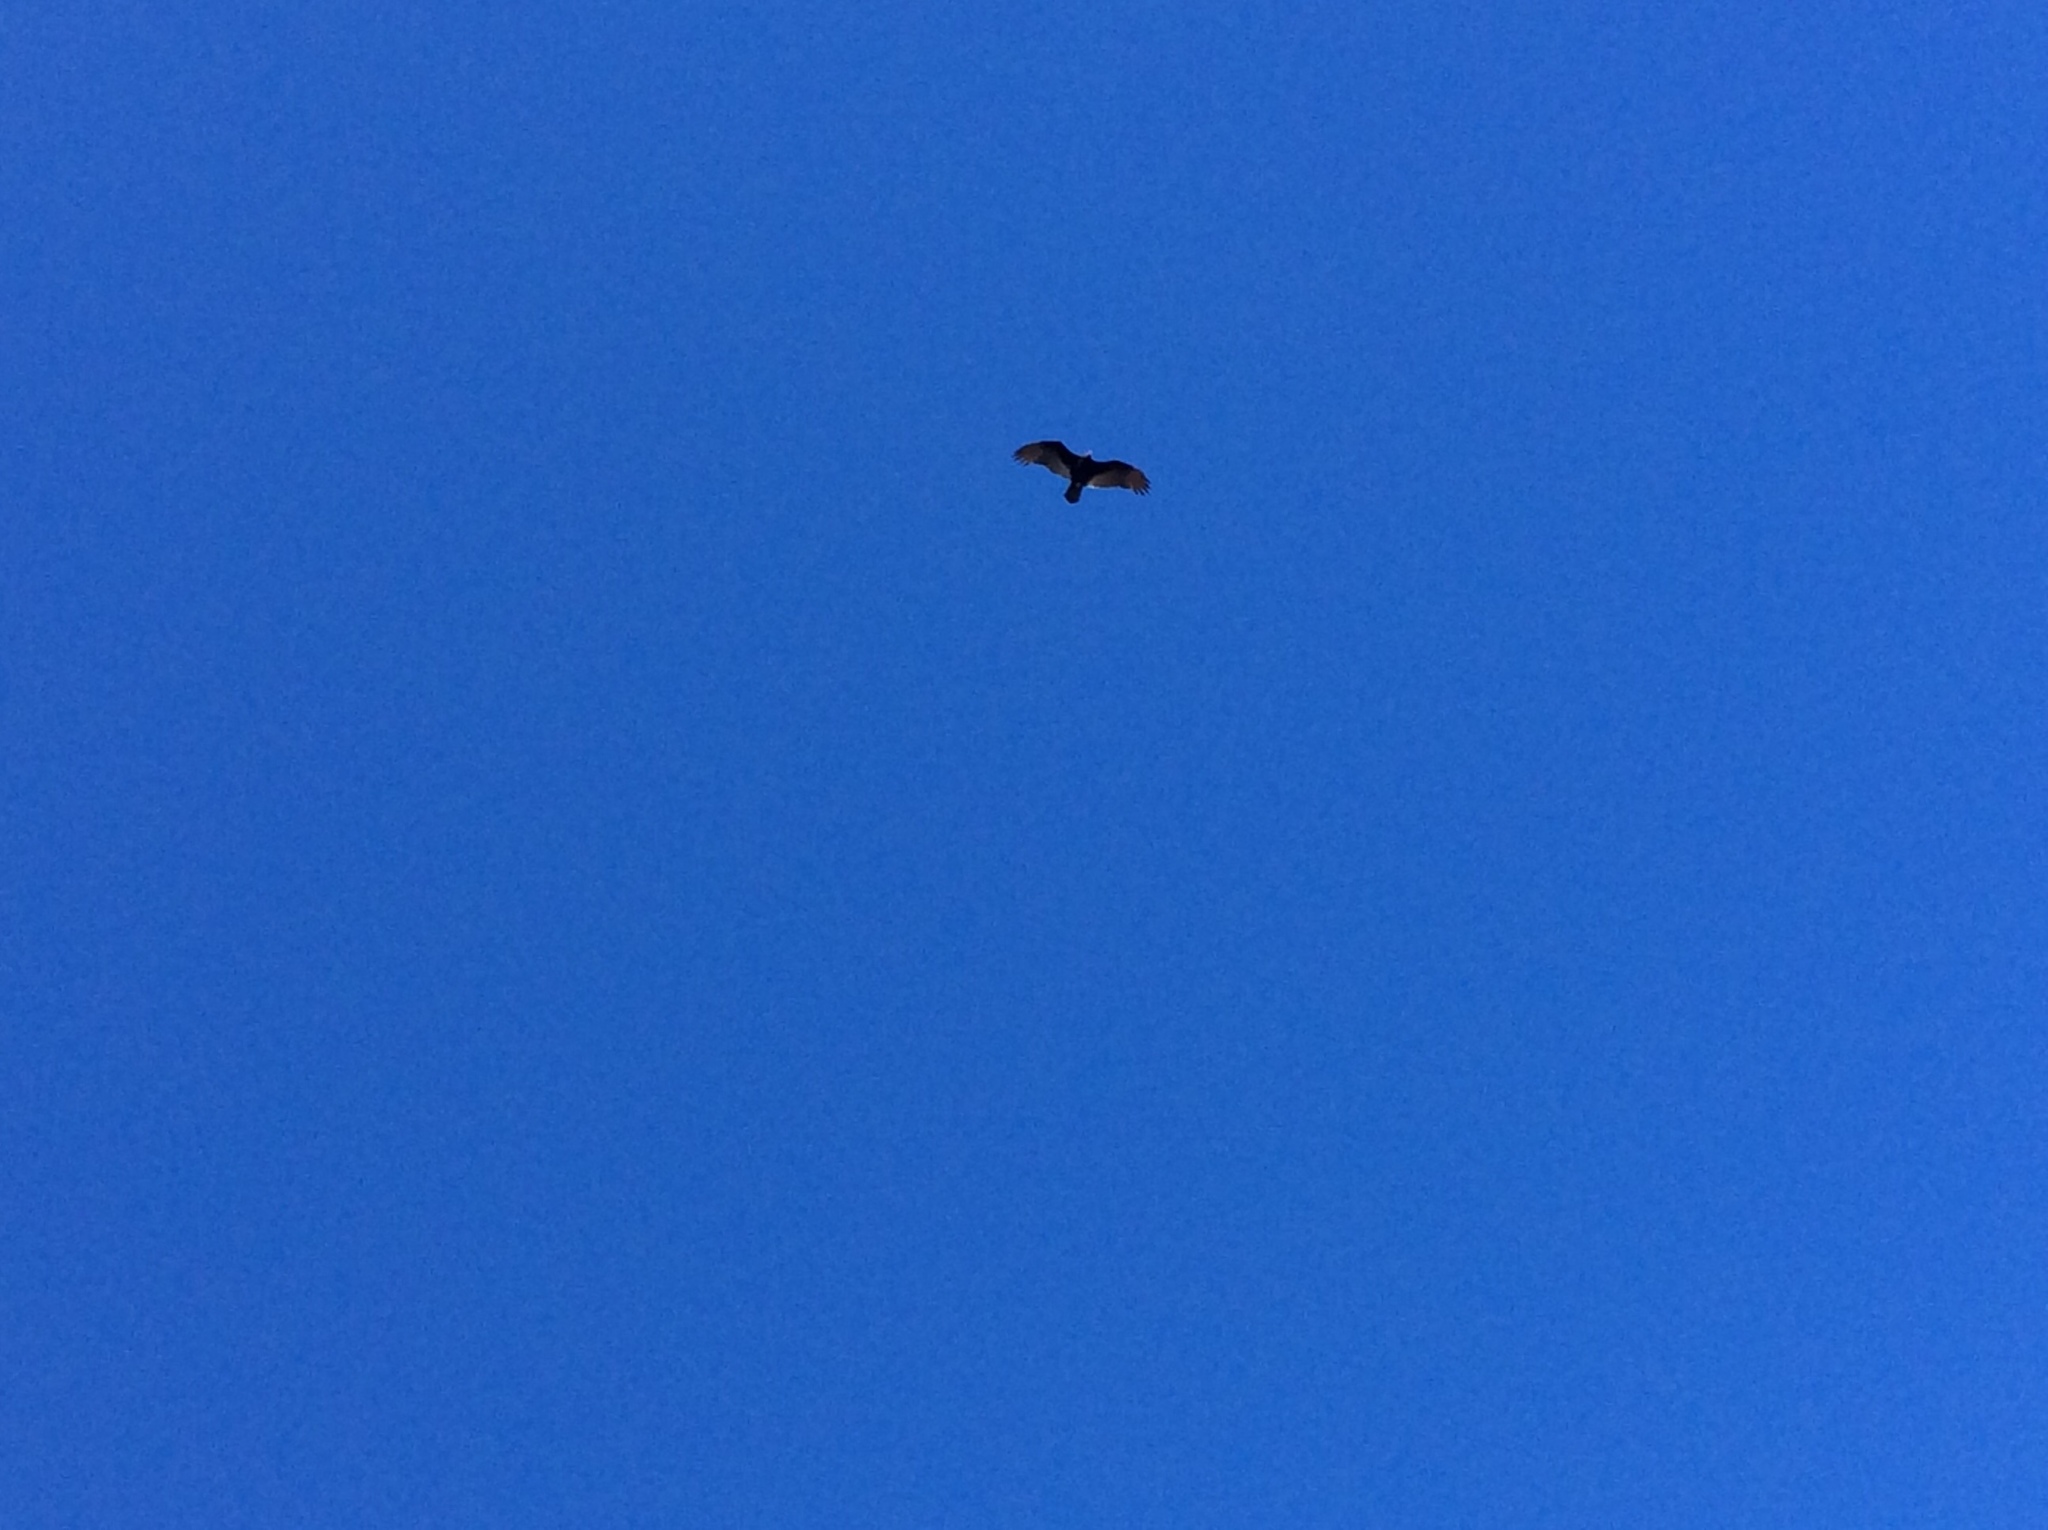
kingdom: Animalia
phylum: Chordata
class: Aves
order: Accipitriformes
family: Cathartidae
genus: Cathartes
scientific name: Cathartes aura
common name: Turkey vulture
